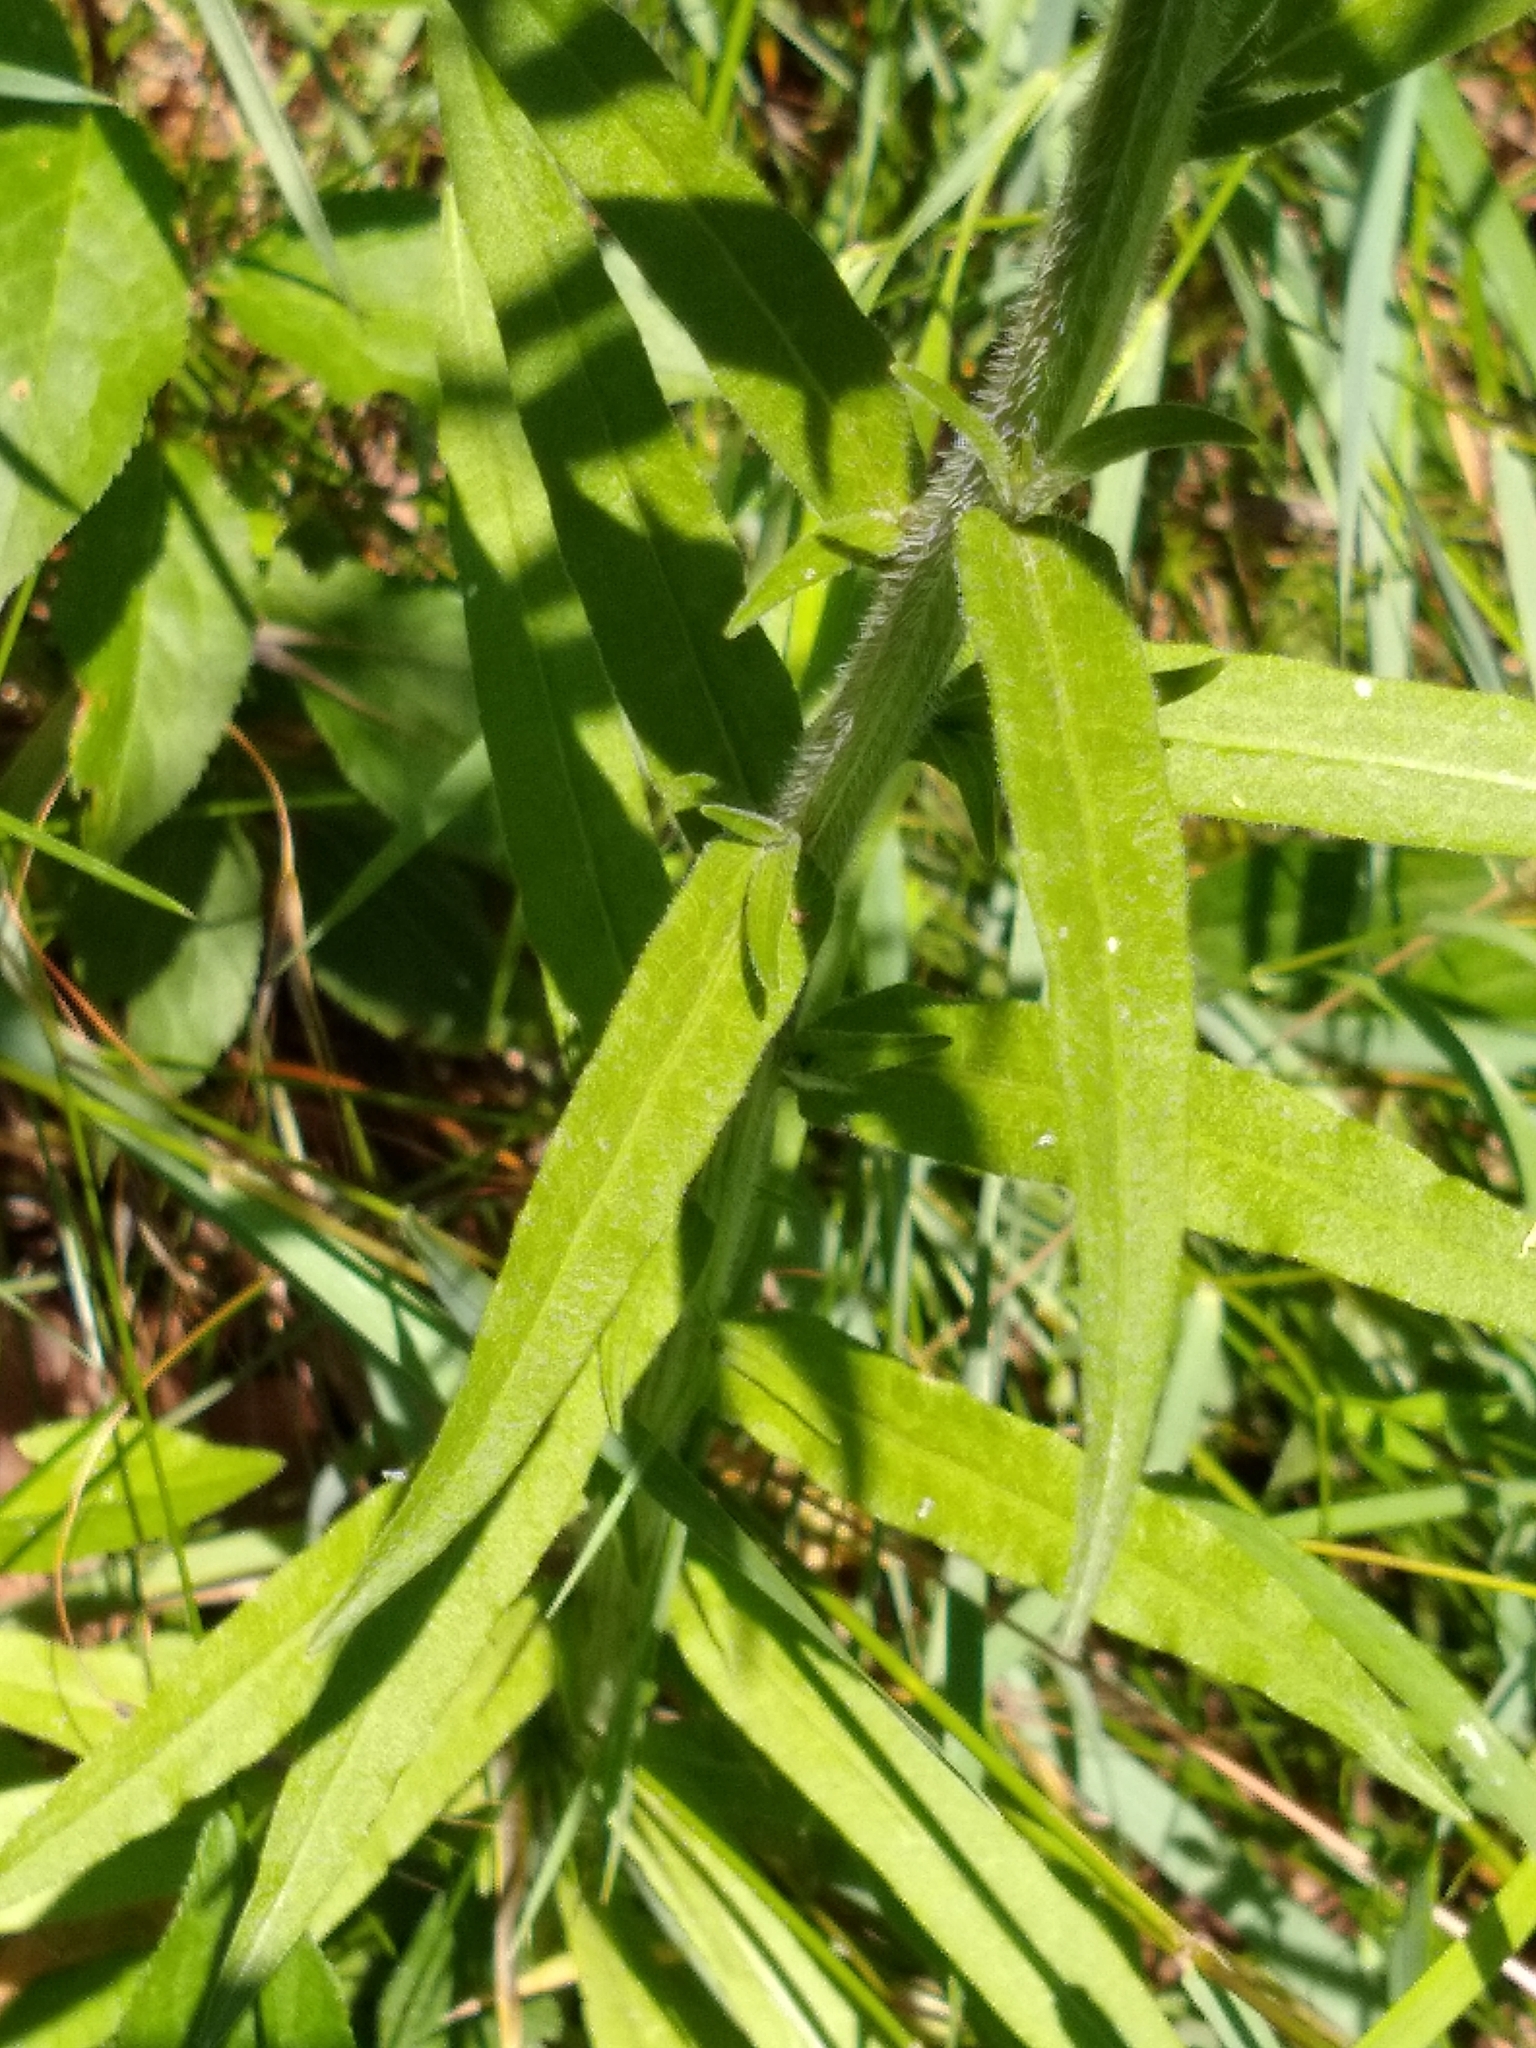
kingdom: Plantae
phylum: Tracheophyta
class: Magnoliopsida
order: Asterales
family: Campanulaceae
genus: Campanula
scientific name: Campanula rapunculus
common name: Rampion bellflower
